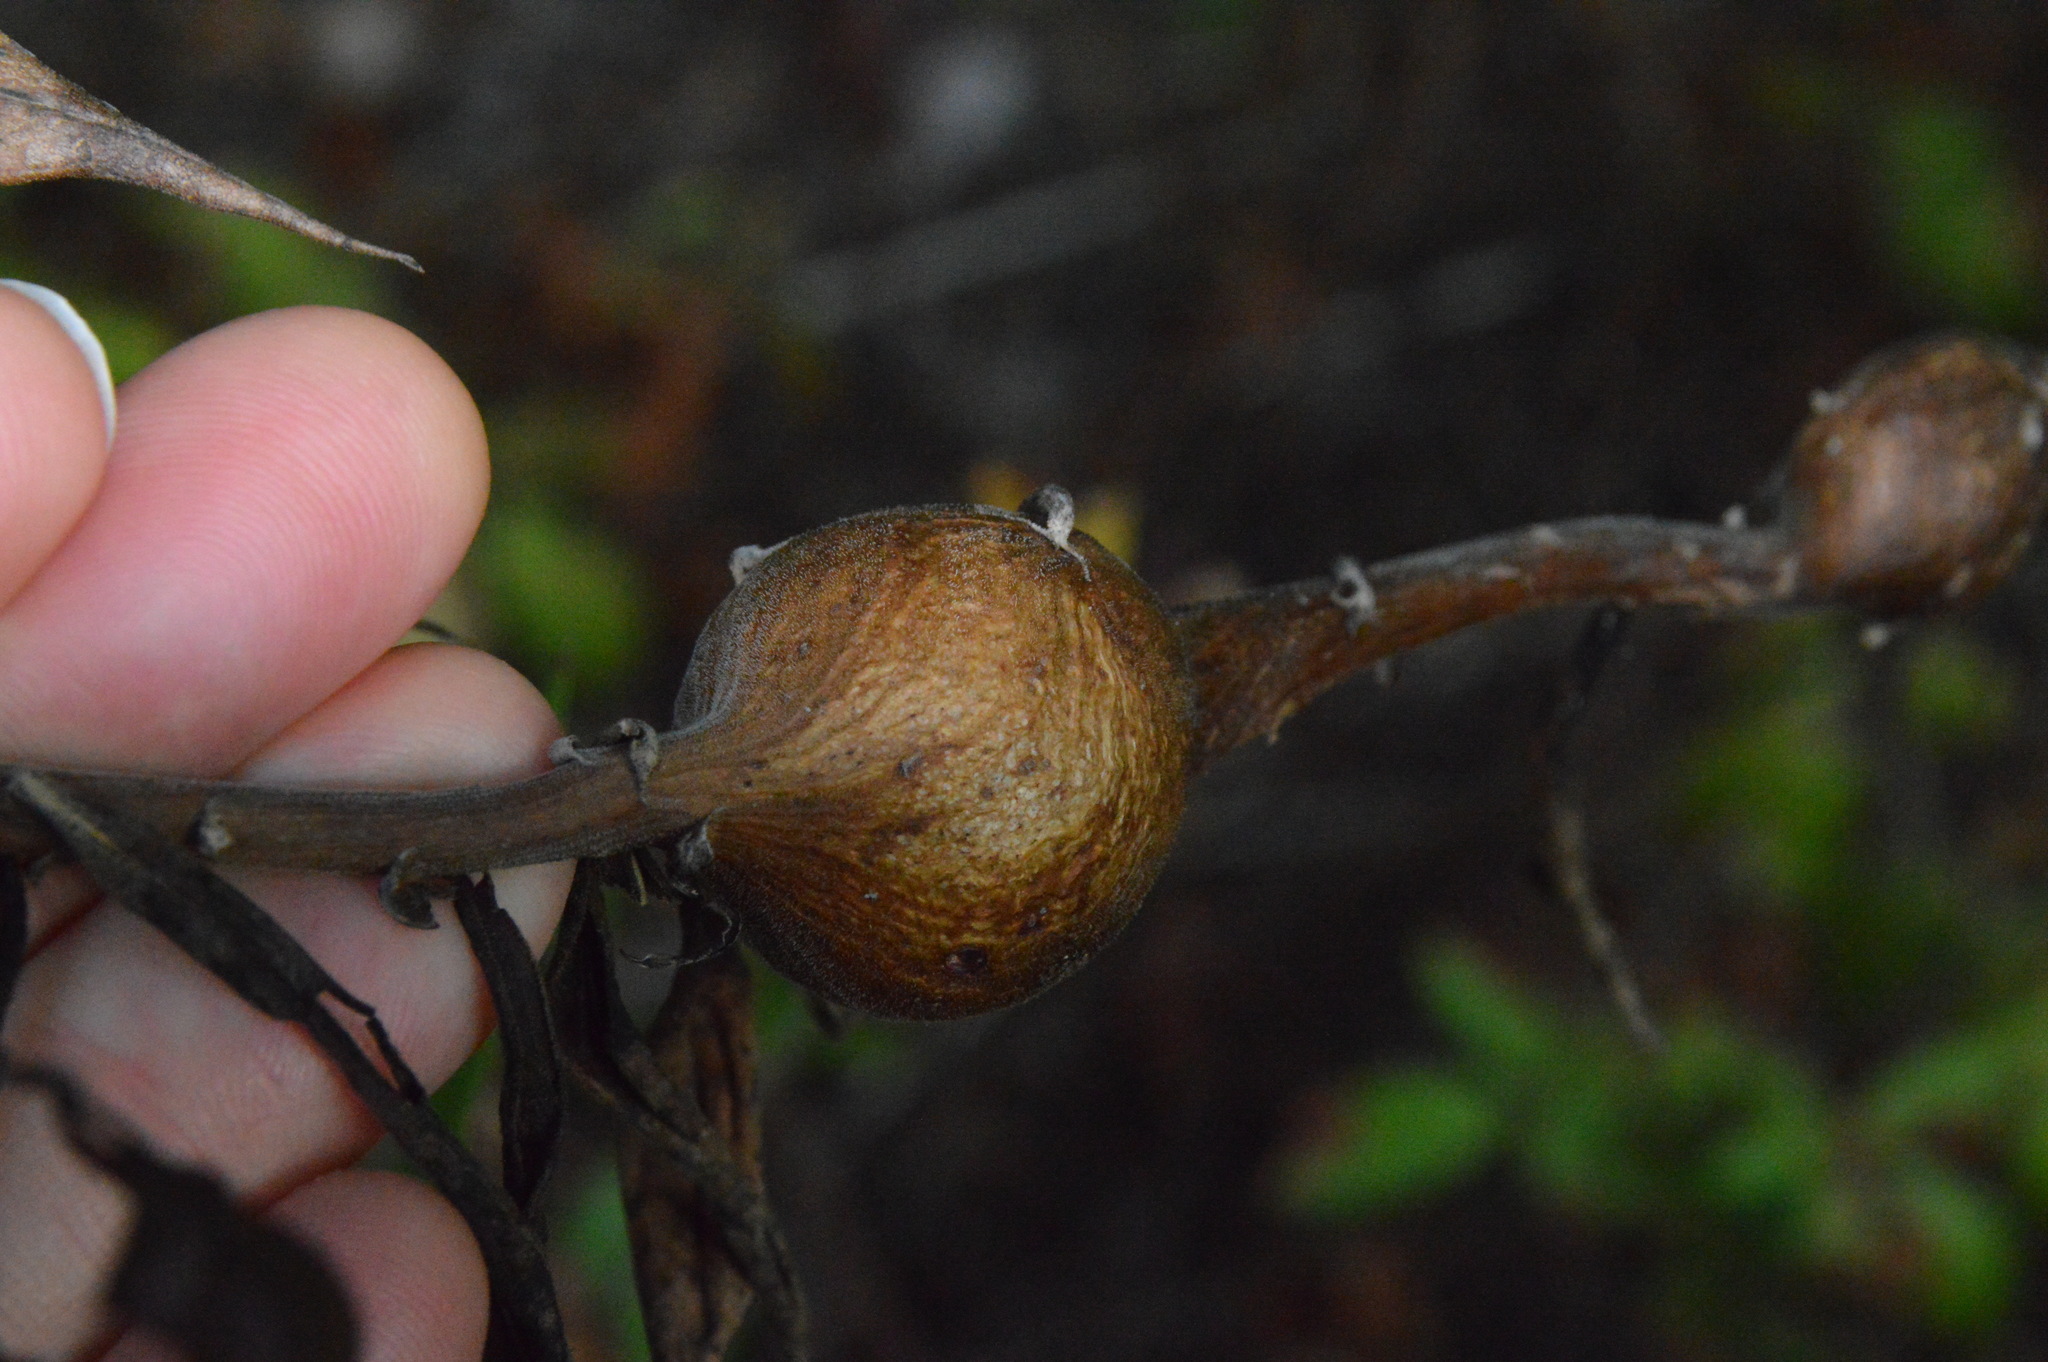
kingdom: Animalia
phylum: Arthropoda
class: Insecta
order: Diptera
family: Tephritidae
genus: Eurosta
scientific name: Eurosta solidaginis
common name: Goldenrod gall fly
